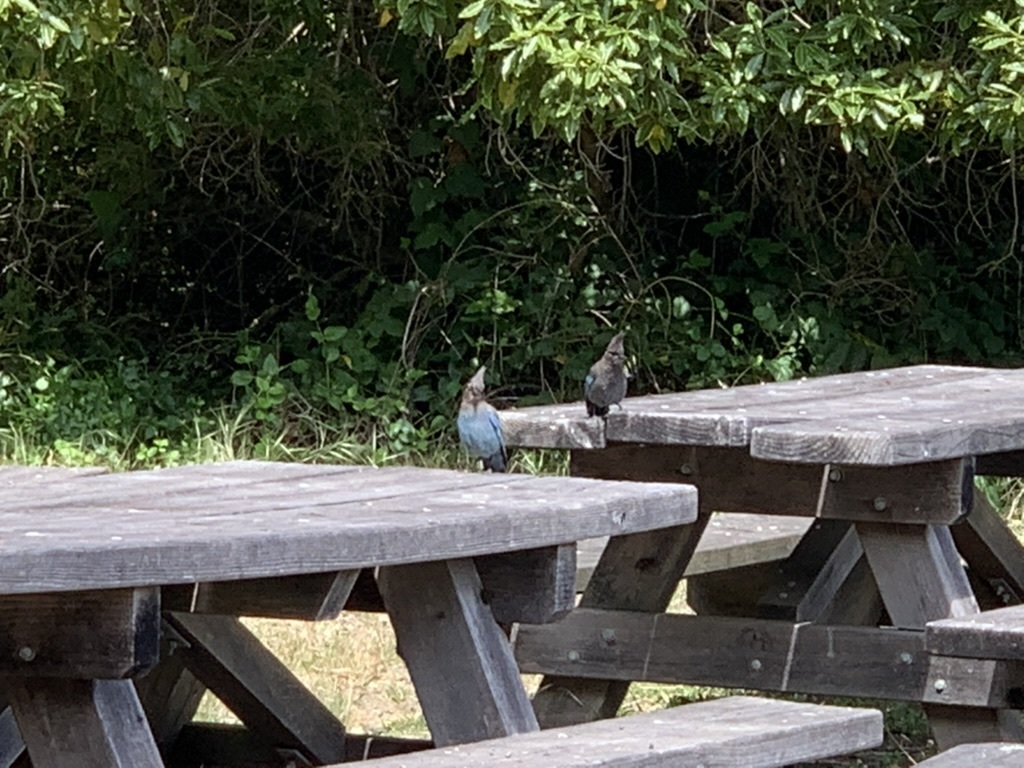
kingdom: Animalia
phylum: Chordata
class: Aves
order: Passeriformes
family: Corvidae
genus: Cyanocitta
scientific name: Cyanocitta stelleri
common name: Steller's jay
